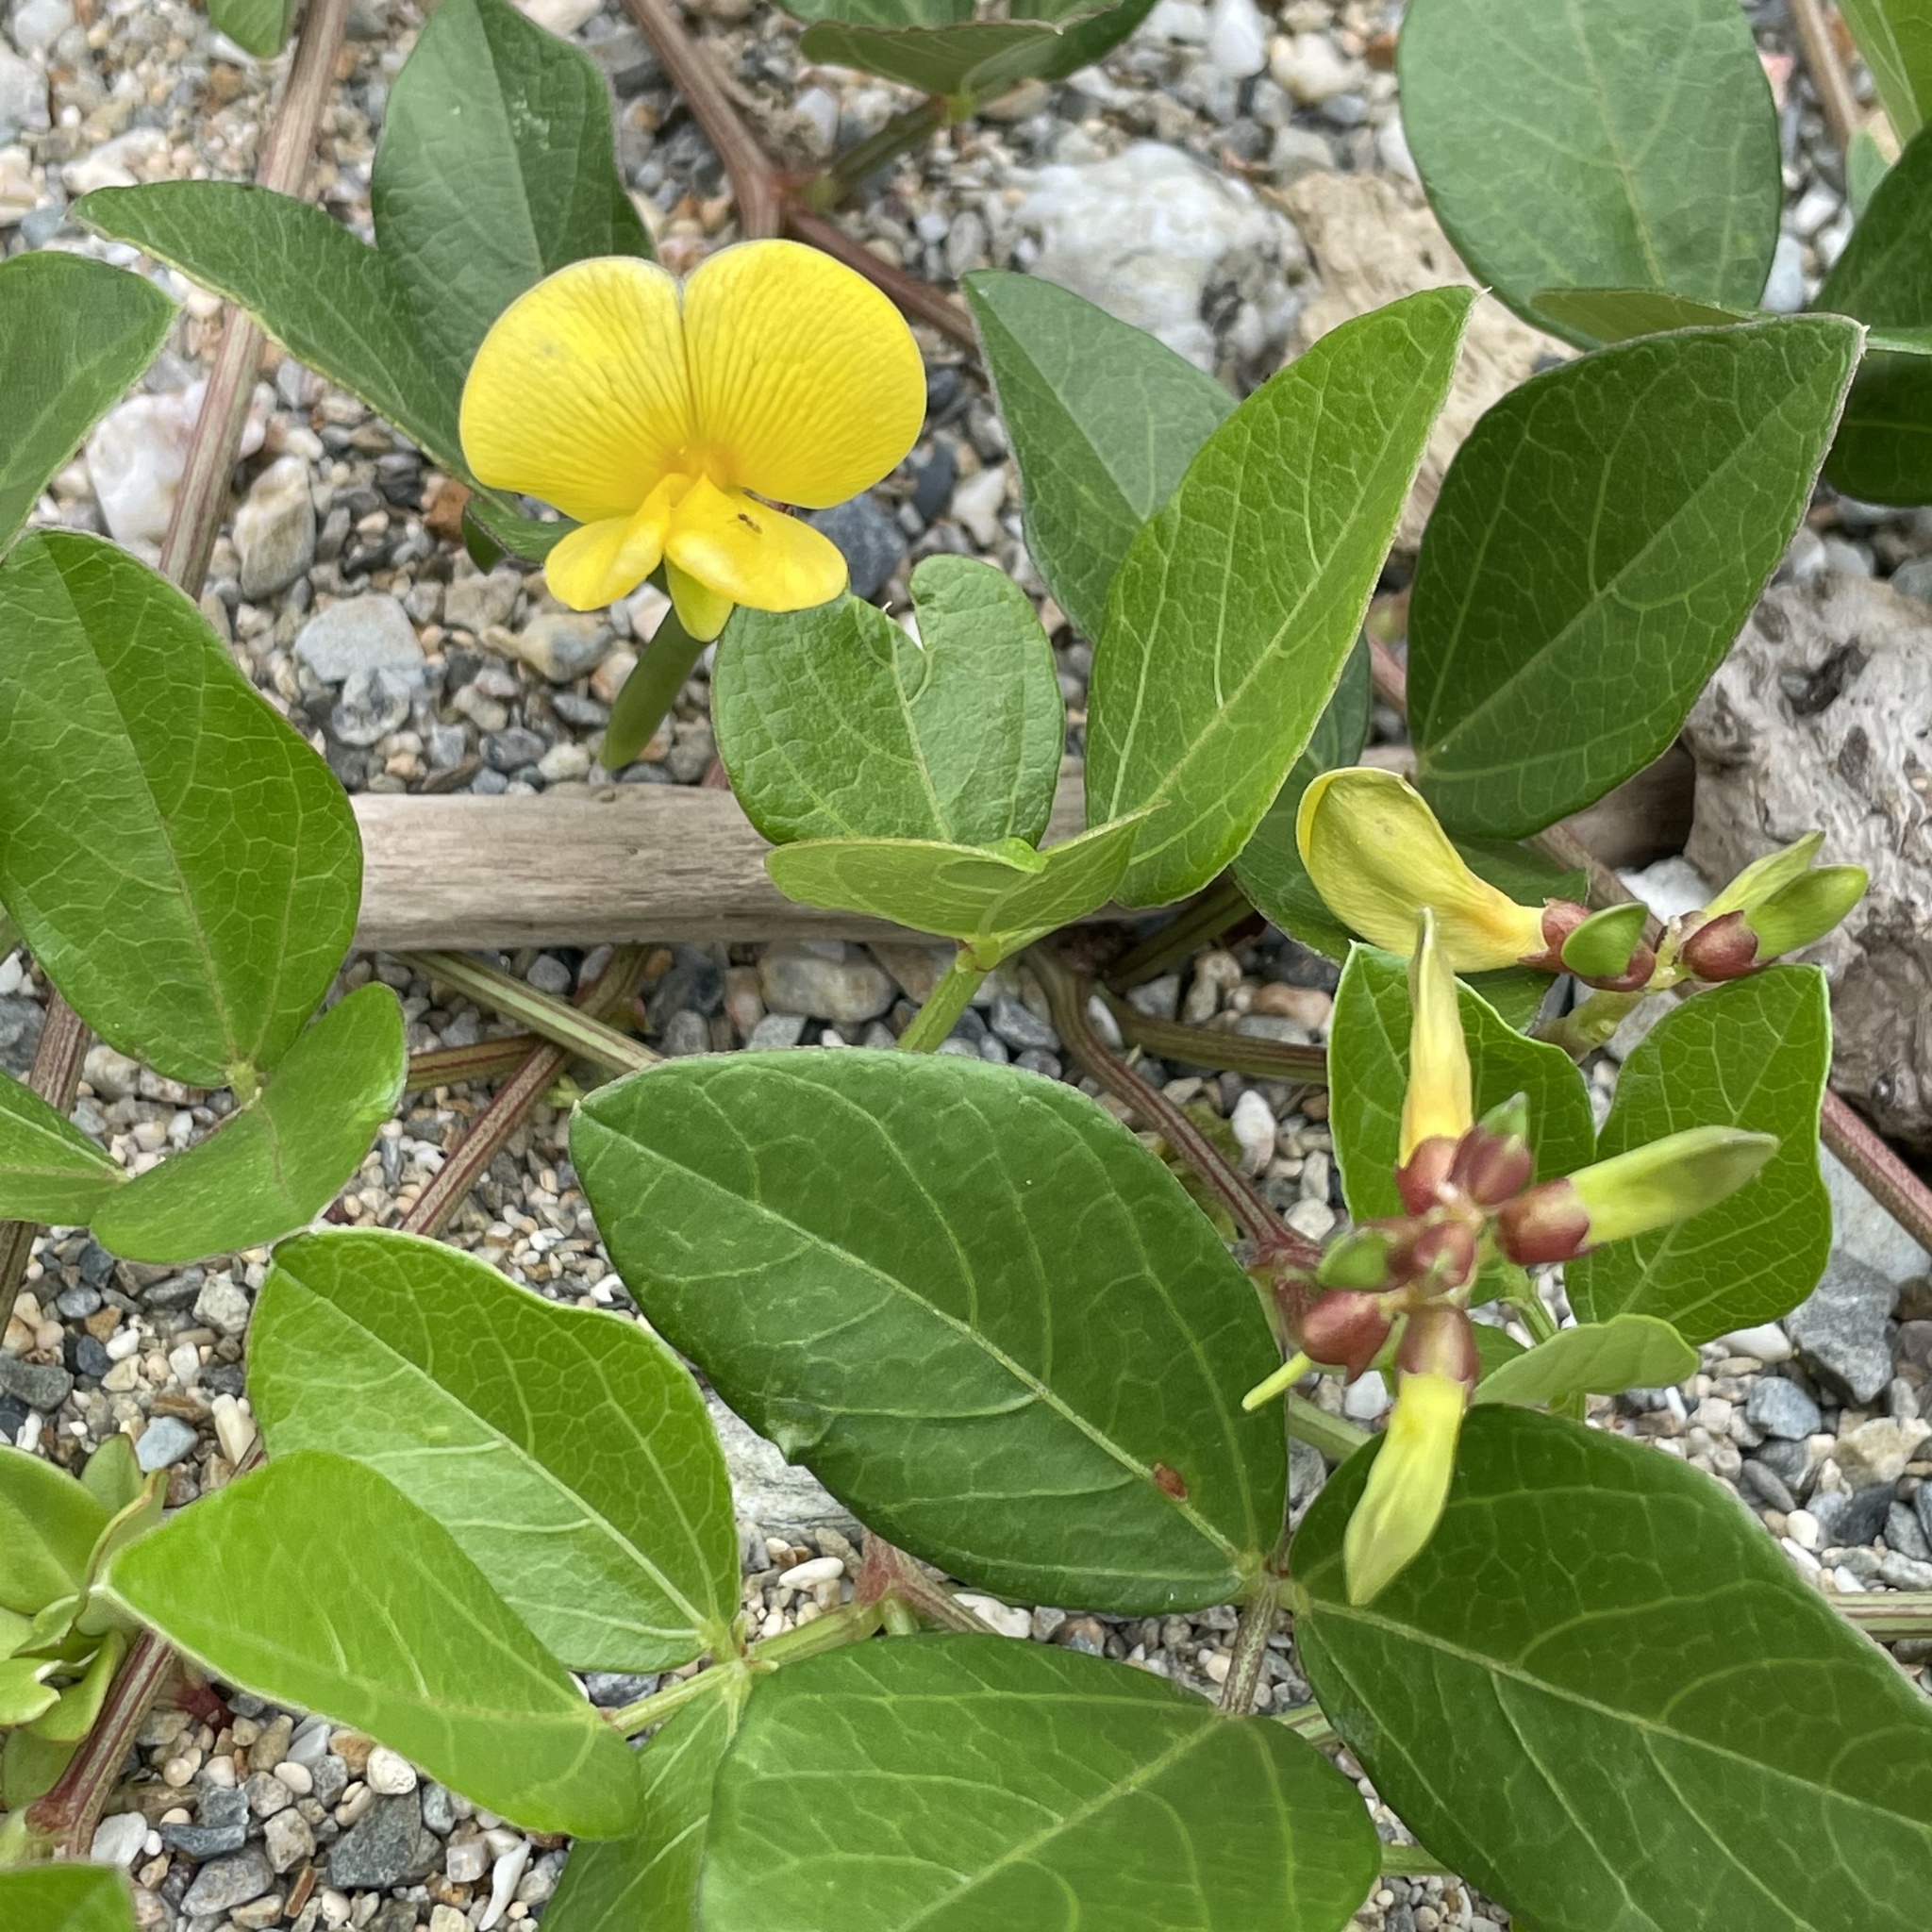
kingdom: Plantae
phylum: Tracheophyta
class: Magnoliopsida
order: Fabales
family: Fabaceae
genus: Vigna
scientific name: Vigna marina
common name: Dune-bean
